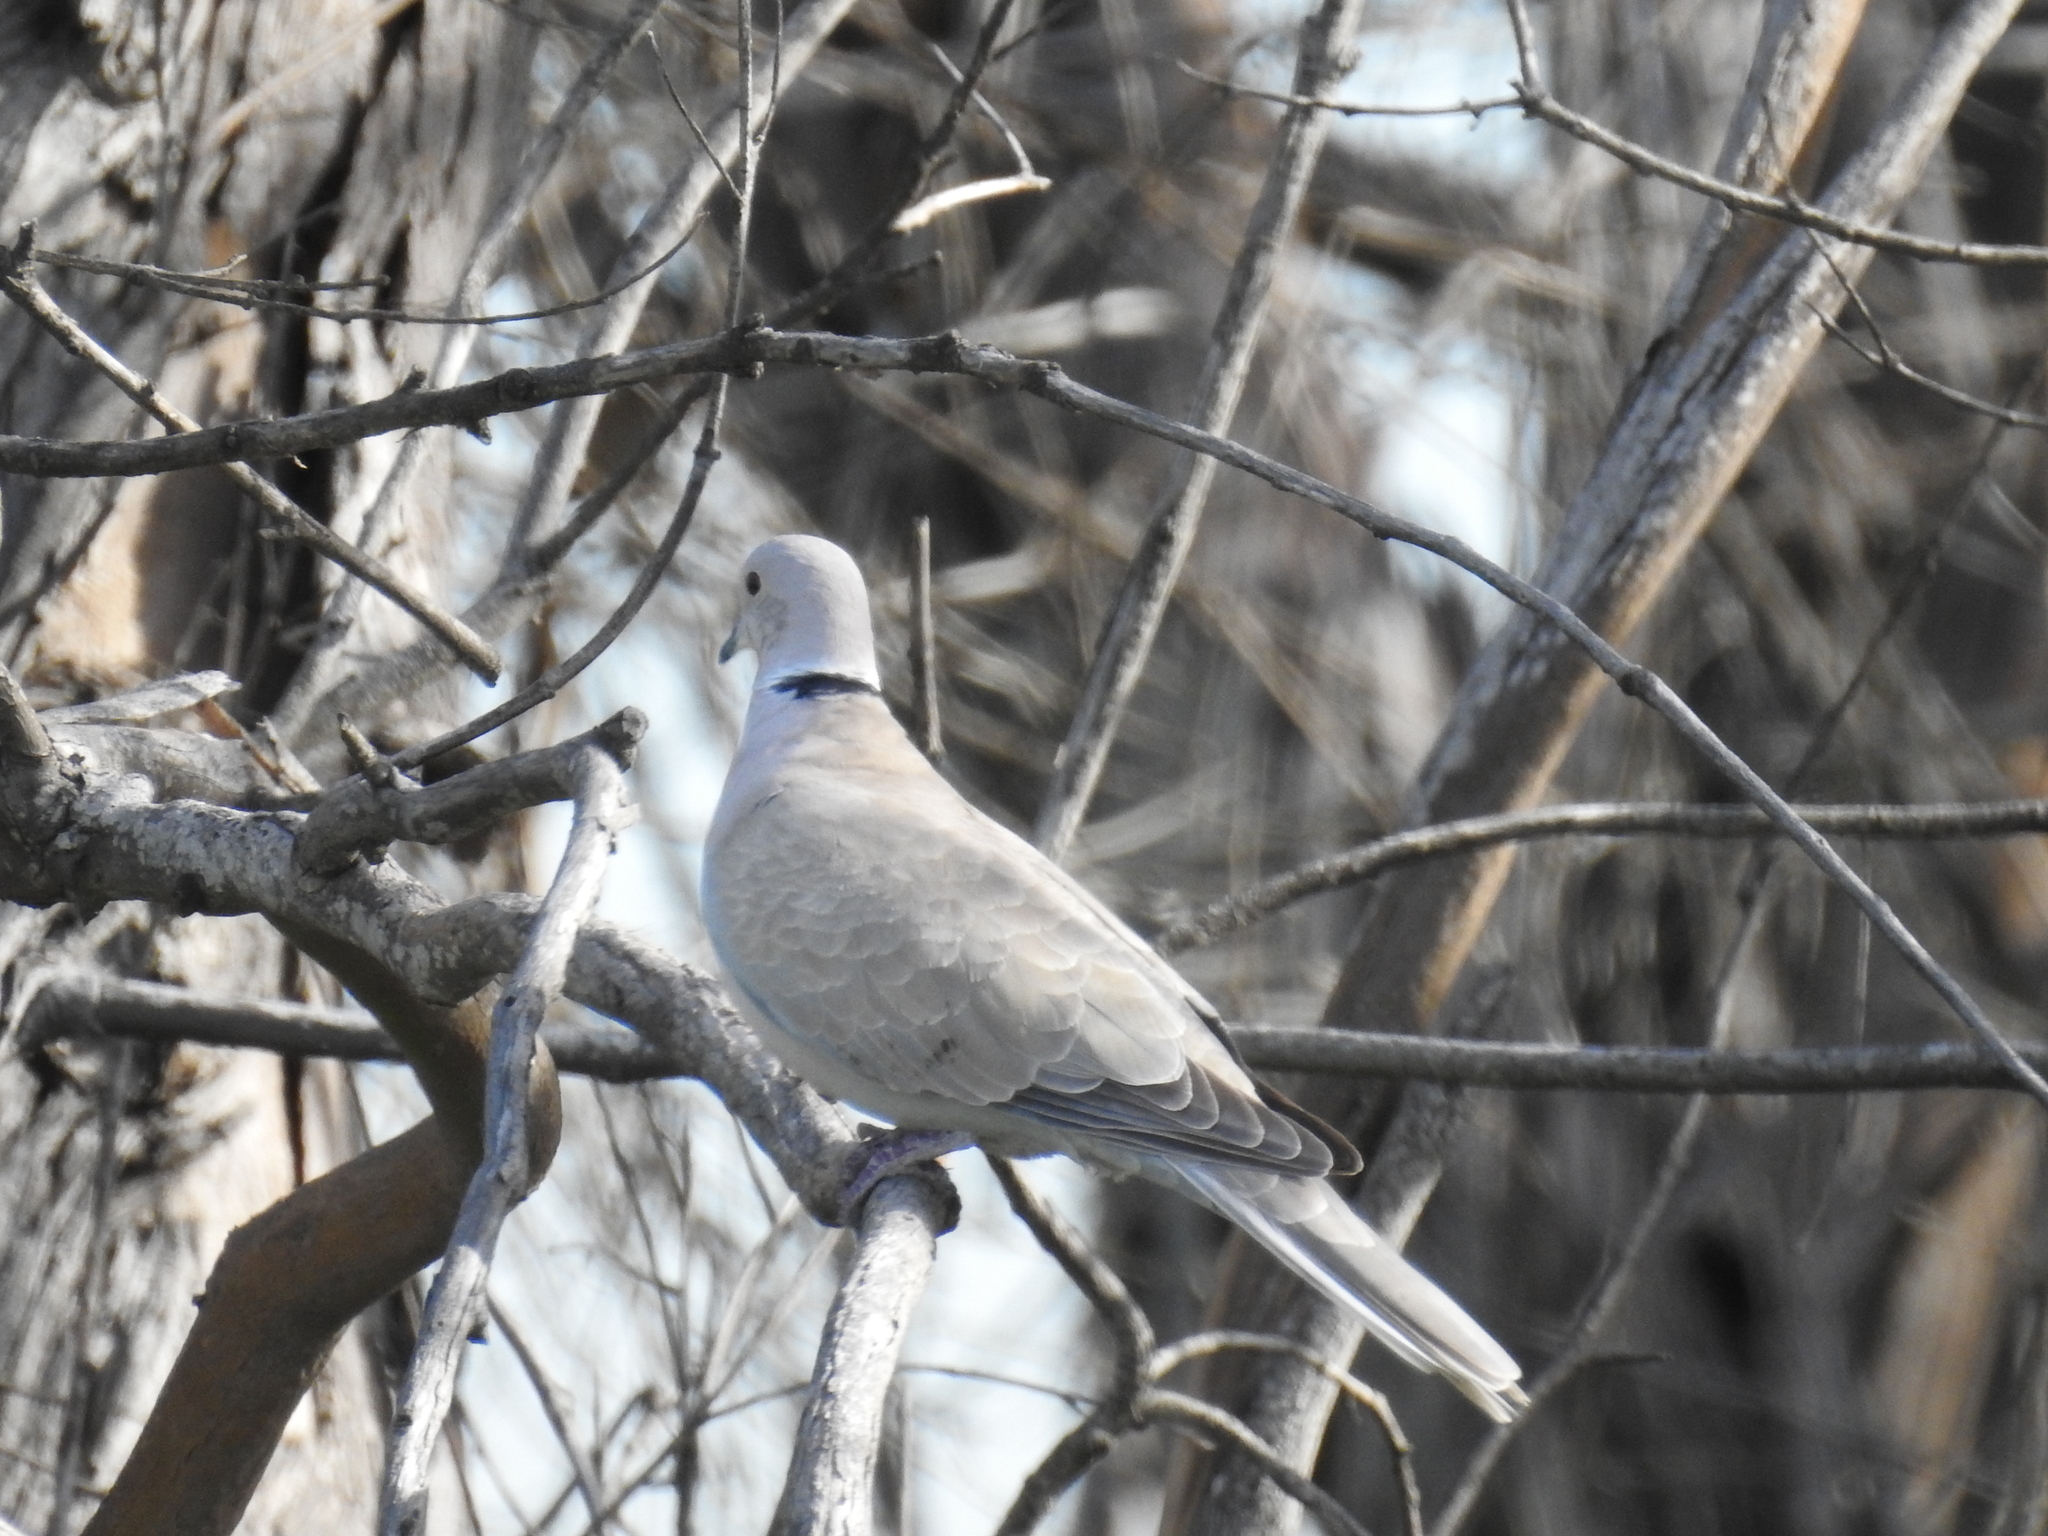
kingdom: Animalia
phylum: Chordata
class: Aves
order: Columbiformes
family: Columbidae
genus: Streptopelia
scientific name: Streptopelia decaocto
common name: Eurasian collared dove
